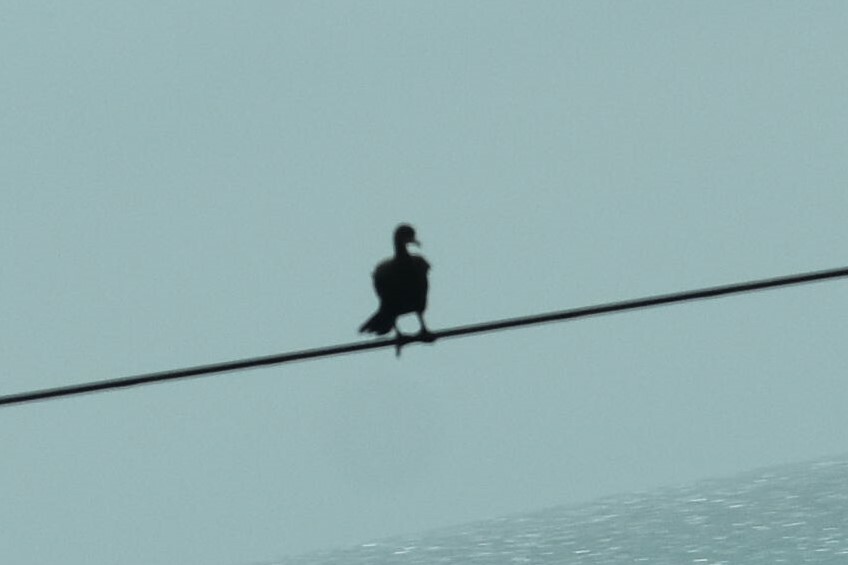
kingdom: Animalia
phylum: Chordata
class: Aves
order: Suliformes
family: Phalacrocoracidae
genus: Phalacrocorax
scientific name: Phalacrocorax auritus
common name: Double-crested cormorant
